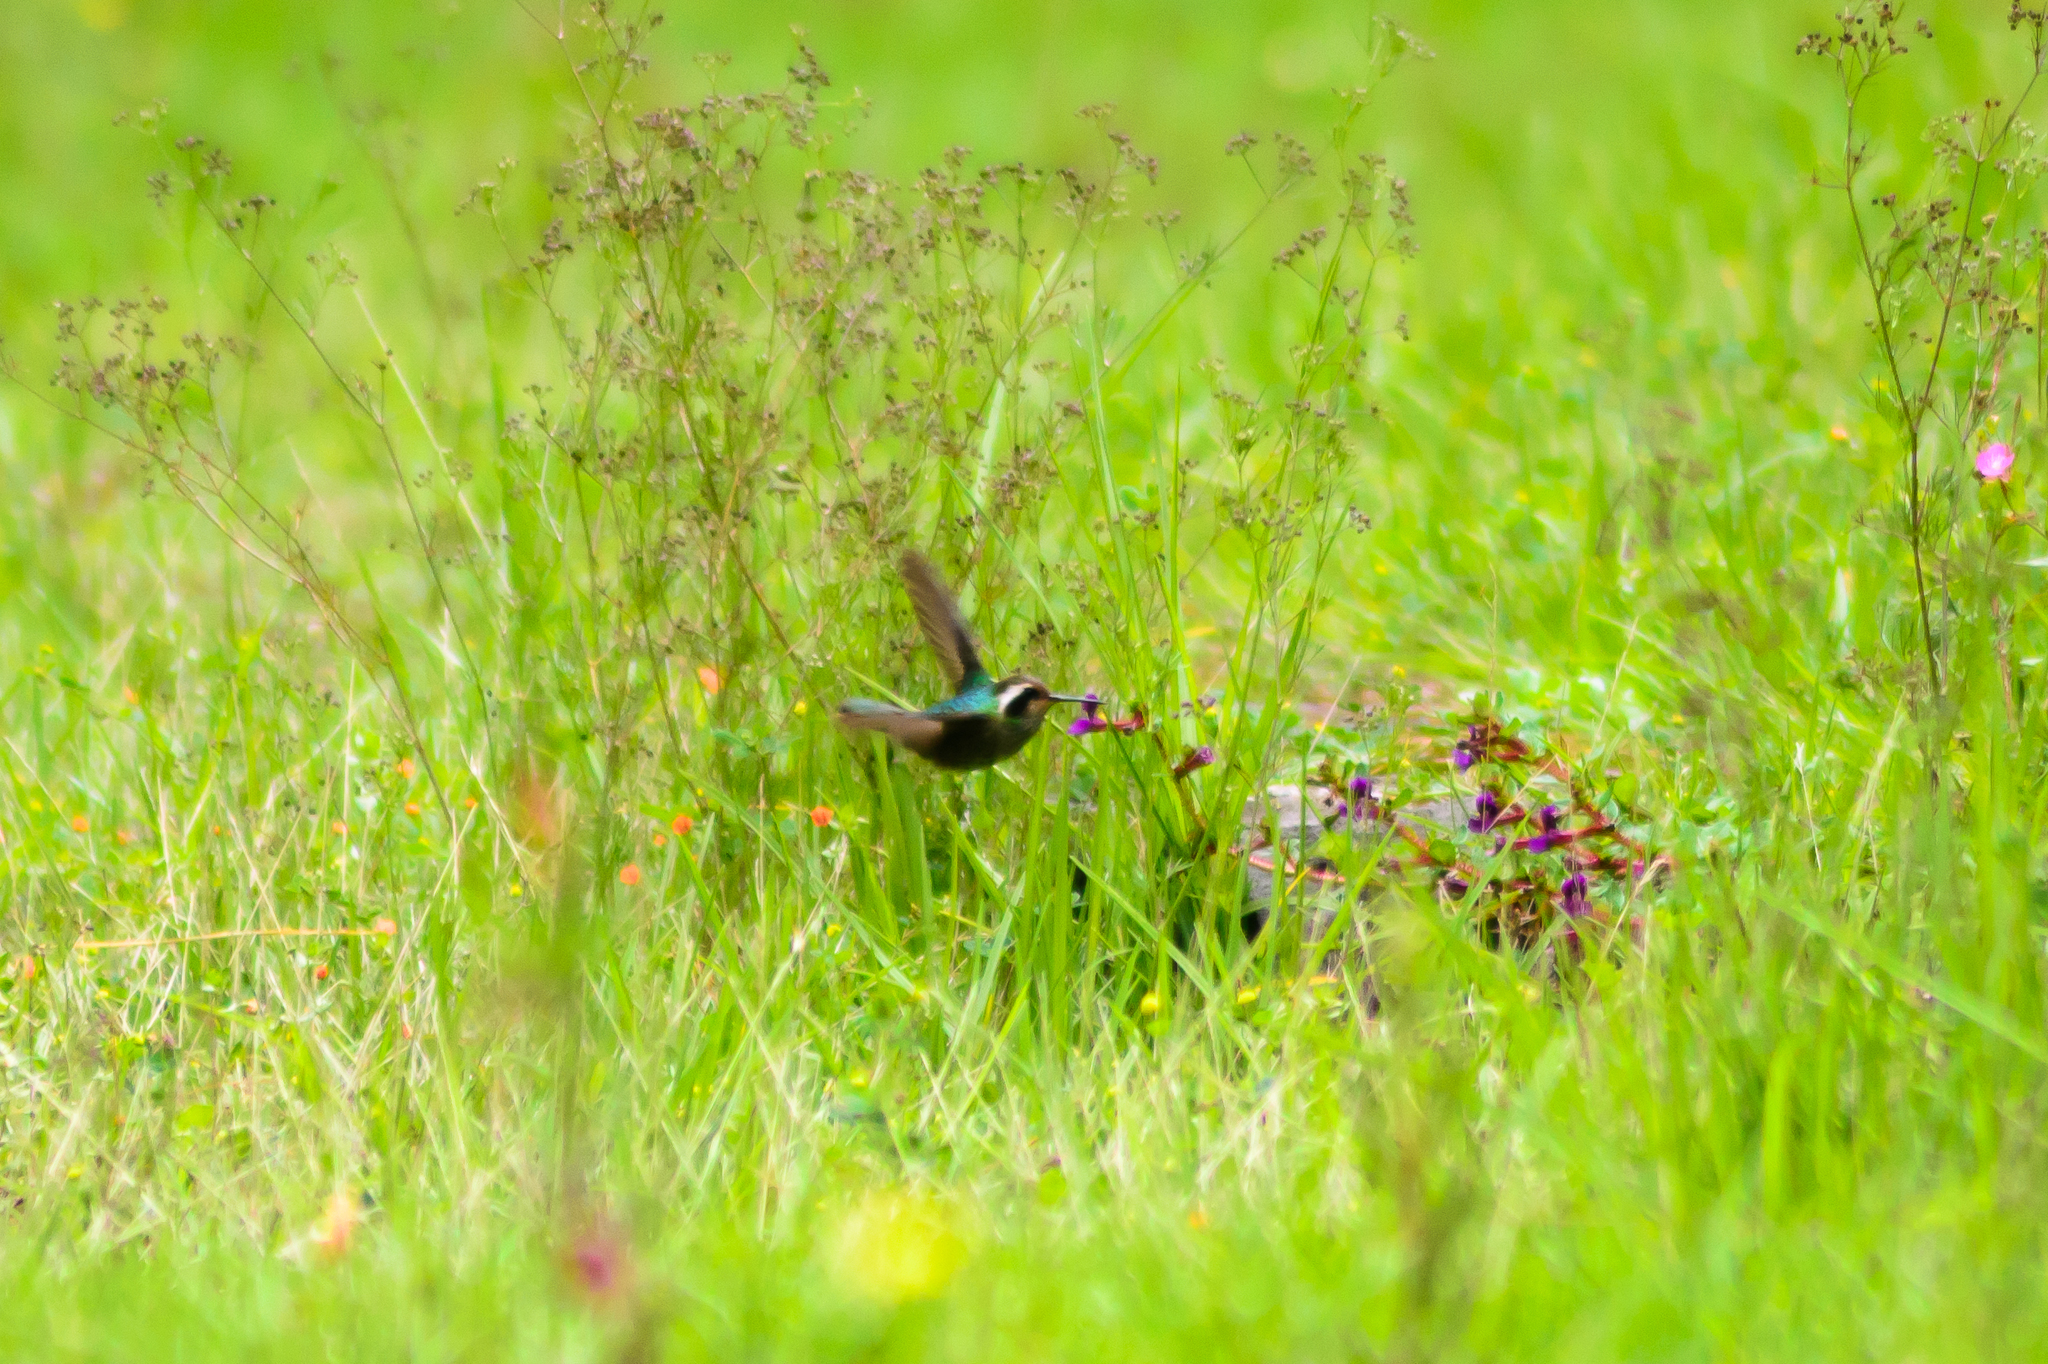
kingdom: Animalia
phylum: Chordata
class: Aves
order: Apodiformes
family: Trochilidae
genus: Basilinna
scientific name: Basilinna leucotis
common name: White-eared hummingbird
